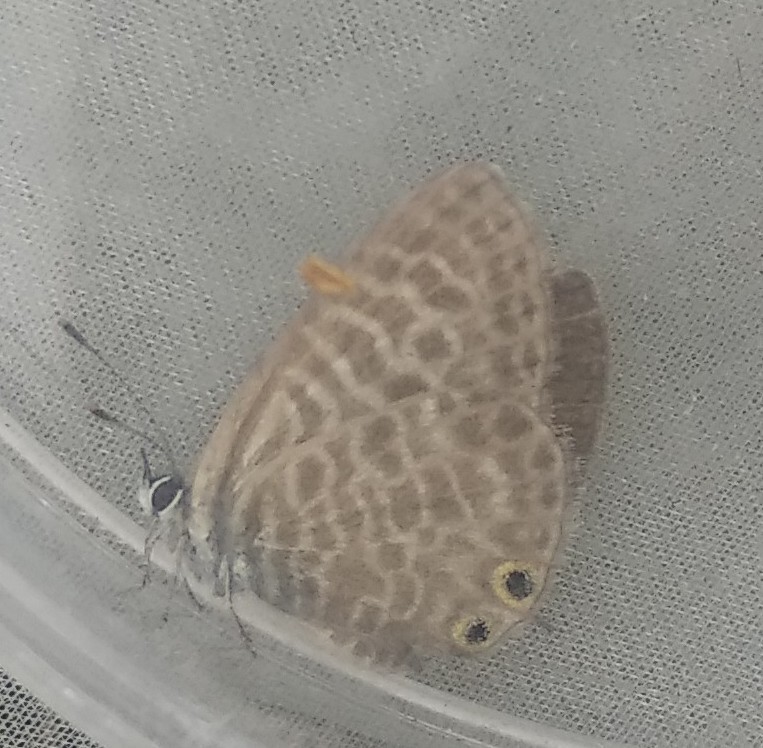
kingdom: Animalia
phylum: Arthropoda
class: Insecta
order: Lepidoptera
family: Lycaenidae
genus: Leptotes
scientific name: Leptotes pirithous
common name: Lang's short-tailed blue
